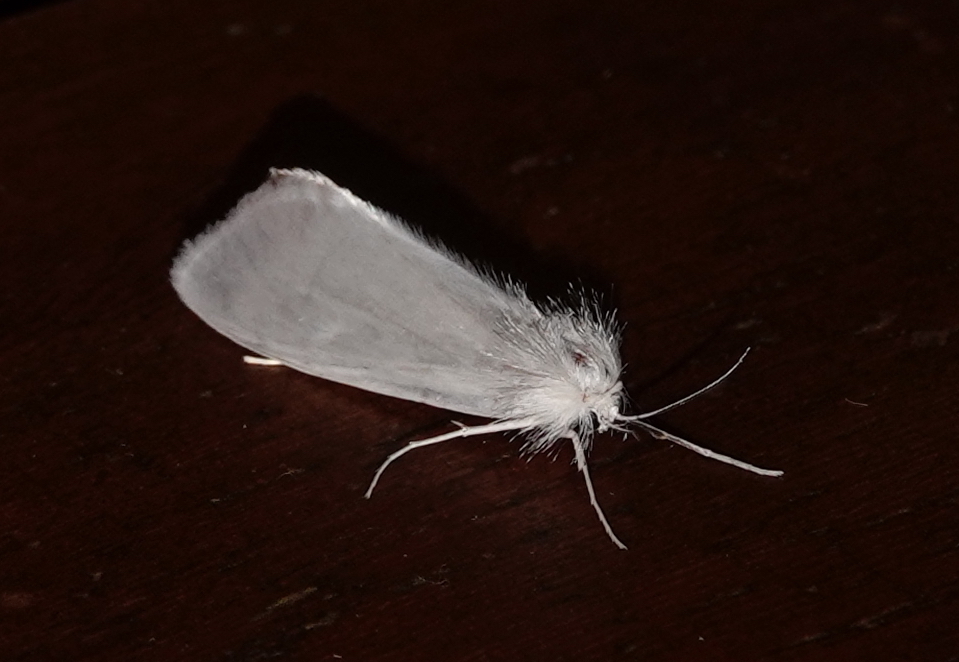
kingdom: Animalia
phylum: Arthropoda
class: Insecta
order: Lepidoptera
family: Crambidae
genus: Rupela
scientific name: Rupela tinctella
